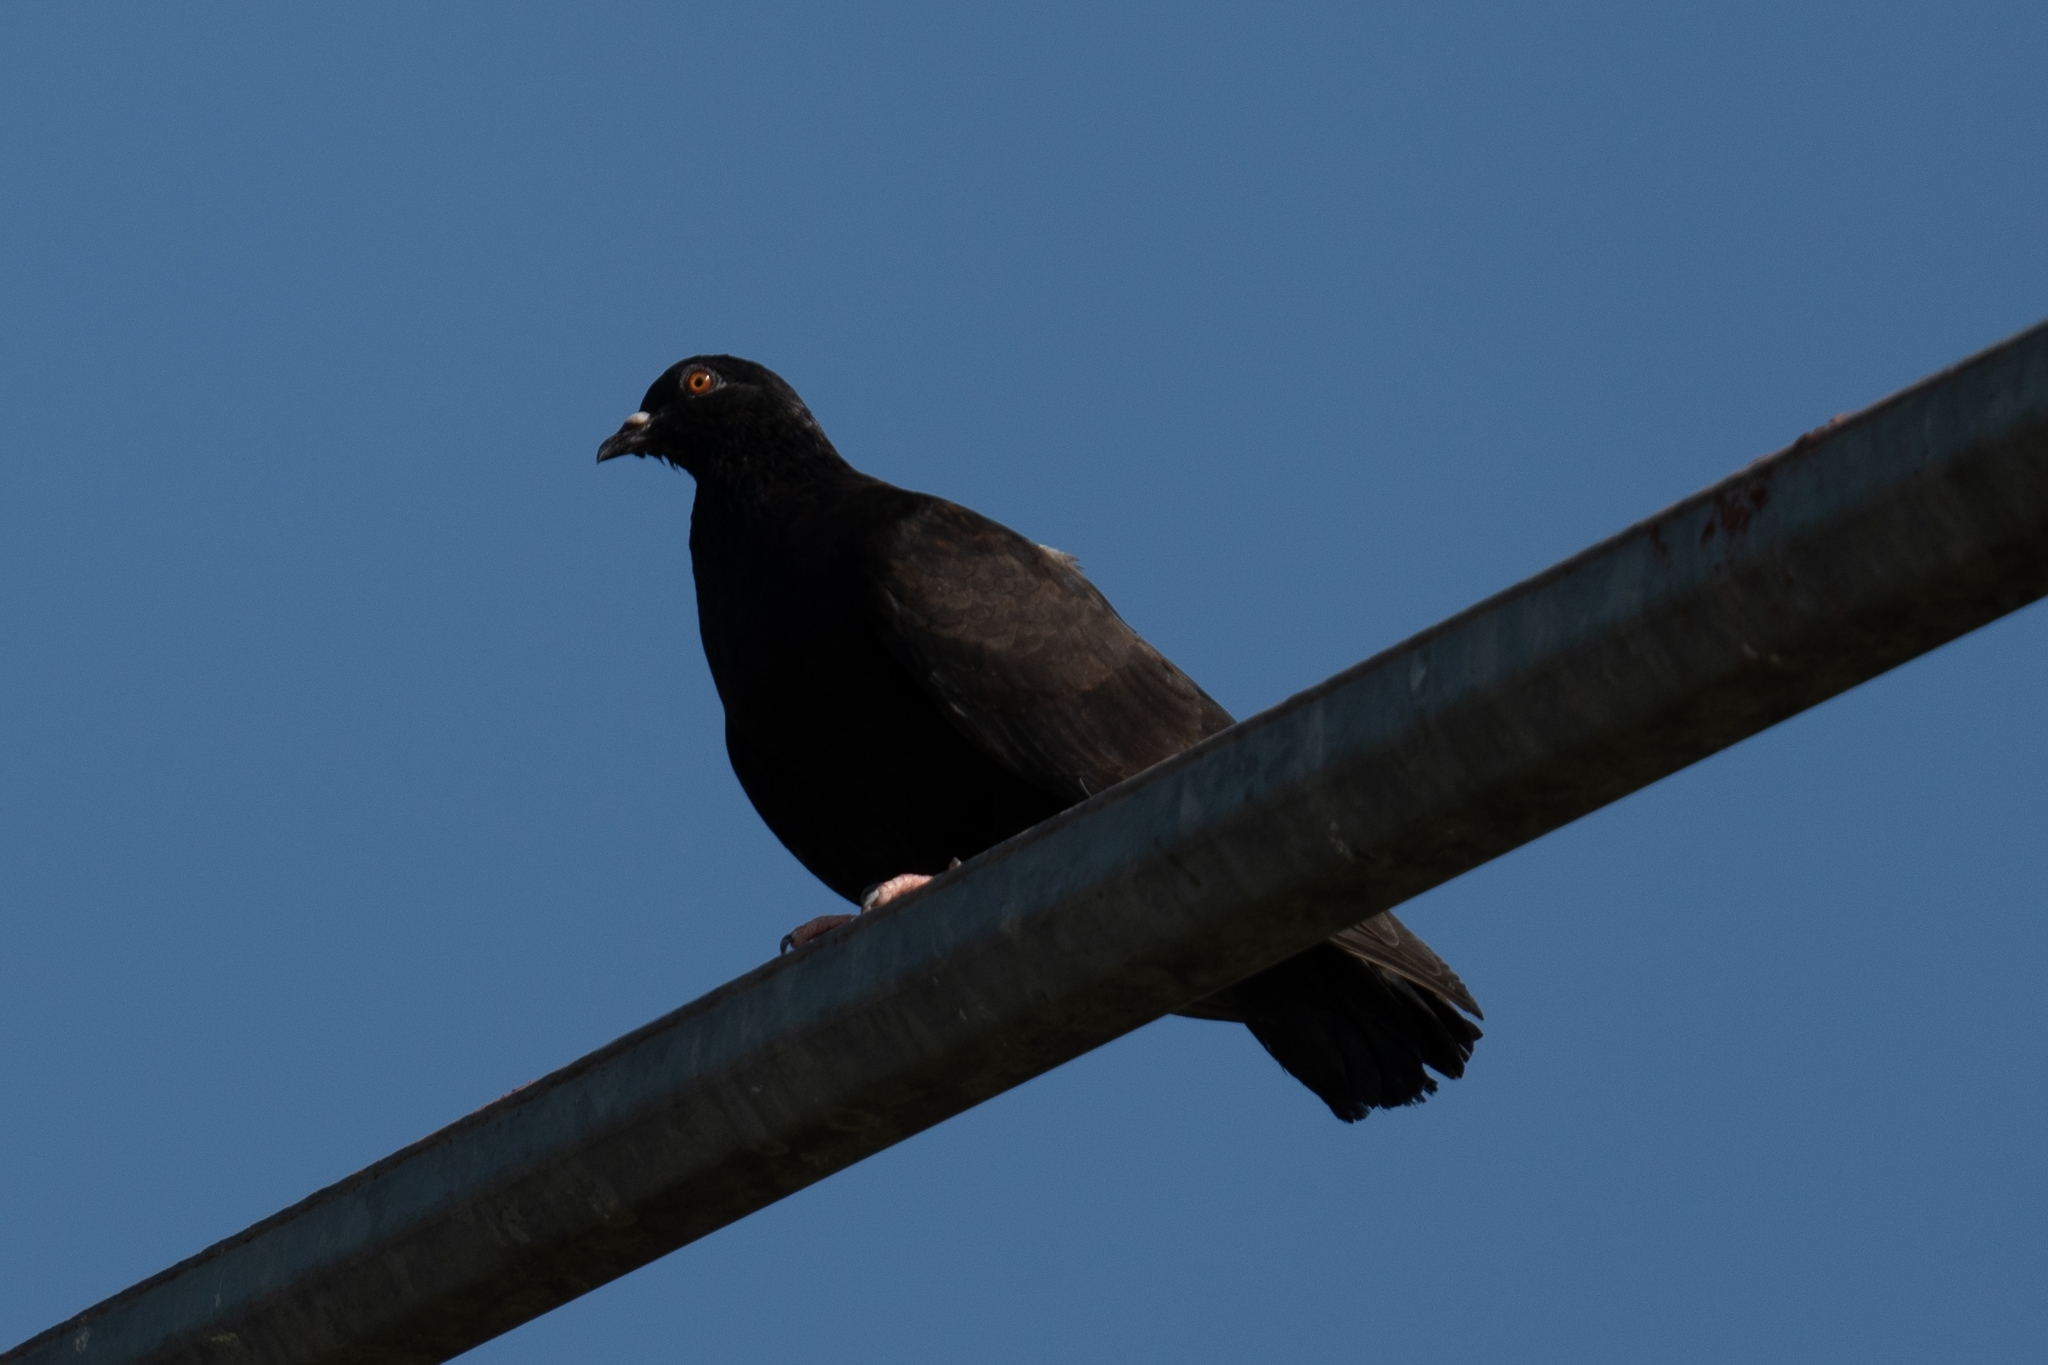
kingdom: Animalia
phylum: Chordata
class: Aves
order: Columbiformes
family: Columbidae
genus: Columba
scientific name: Columba livia
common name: Rock pigeon
